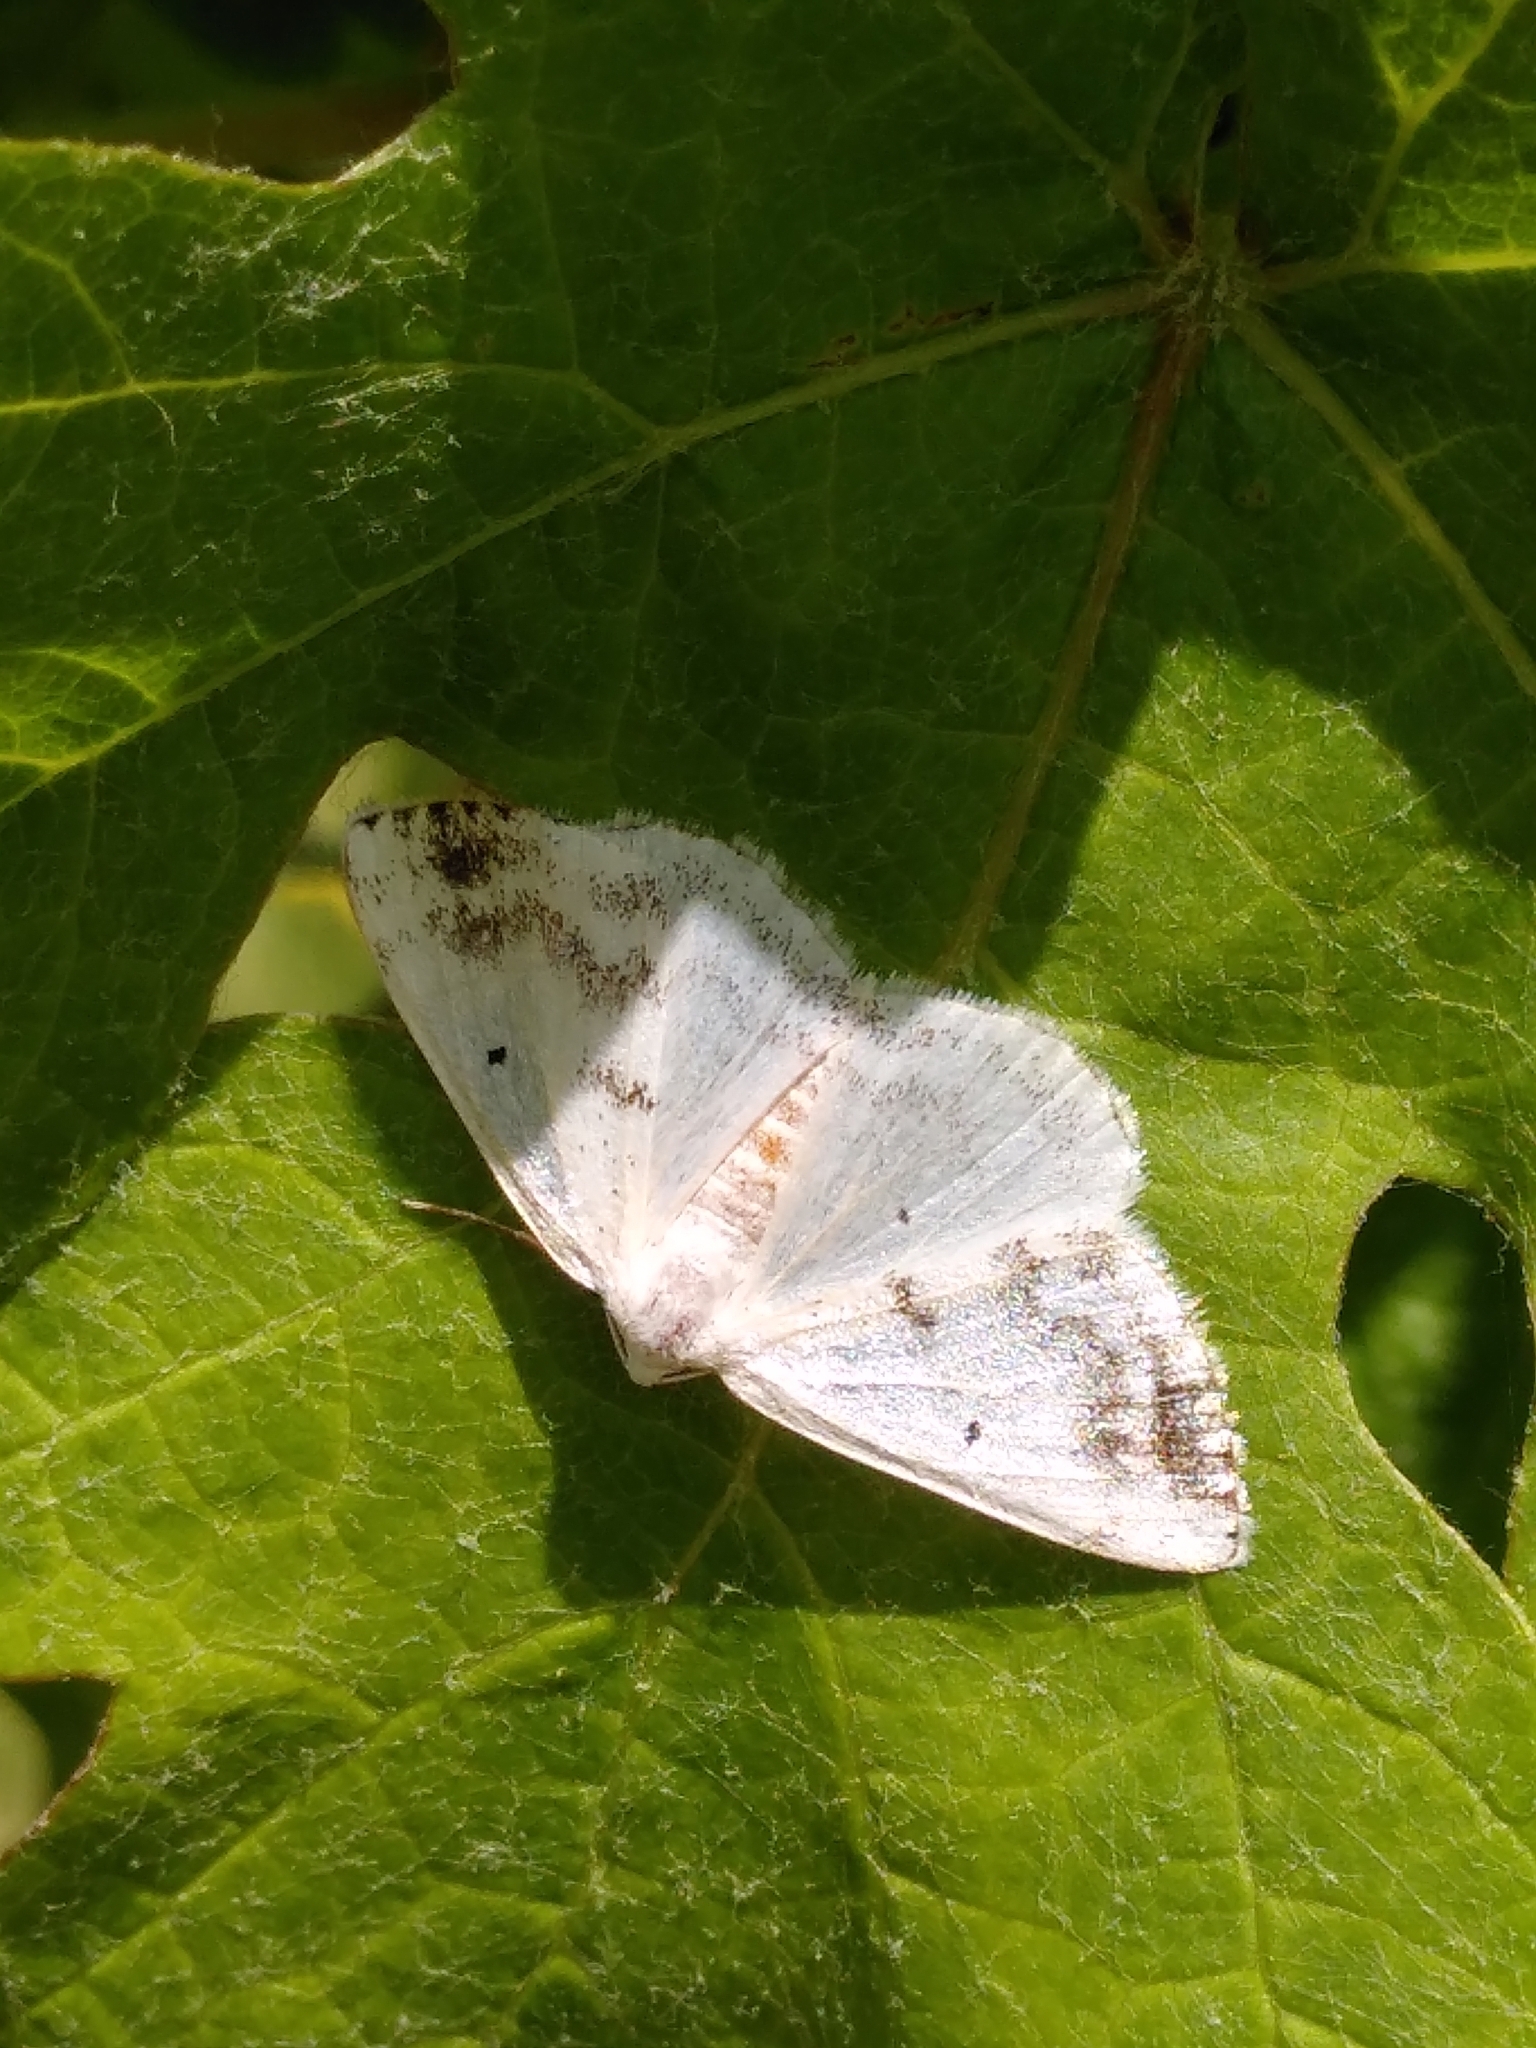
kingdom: Animalia
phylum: Arthropoda
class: Insecta
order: Lepidoptera
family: Geometridae
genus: Lomographa
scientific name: Lomographa temerata
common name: Clouded silver
